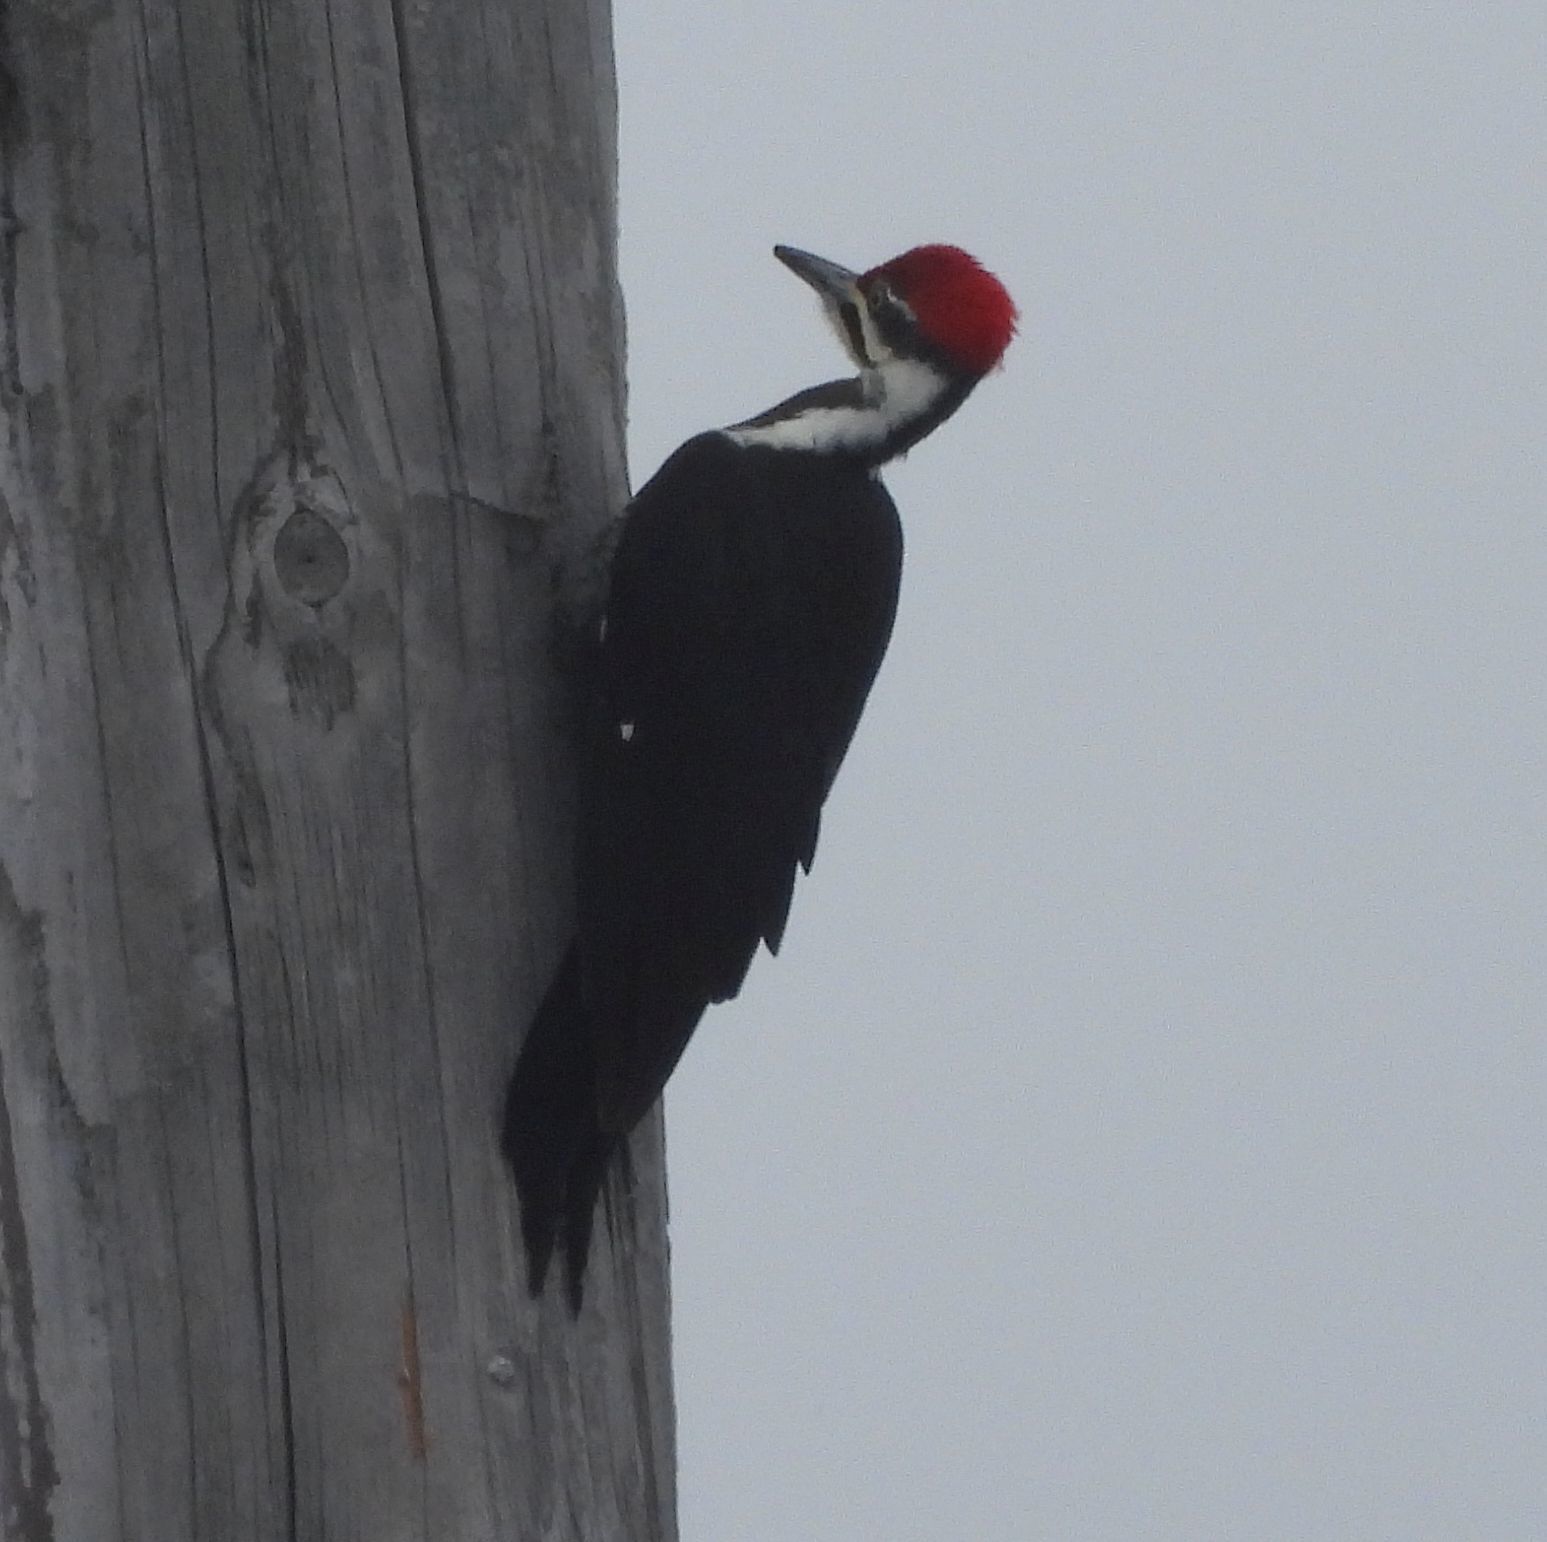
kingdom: Animalia
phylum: Chordata
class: Aves
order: Piciformes
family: Picidae
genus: Dryocopus
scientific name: Dryocopus pileatus
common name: Pileated woodpecker
